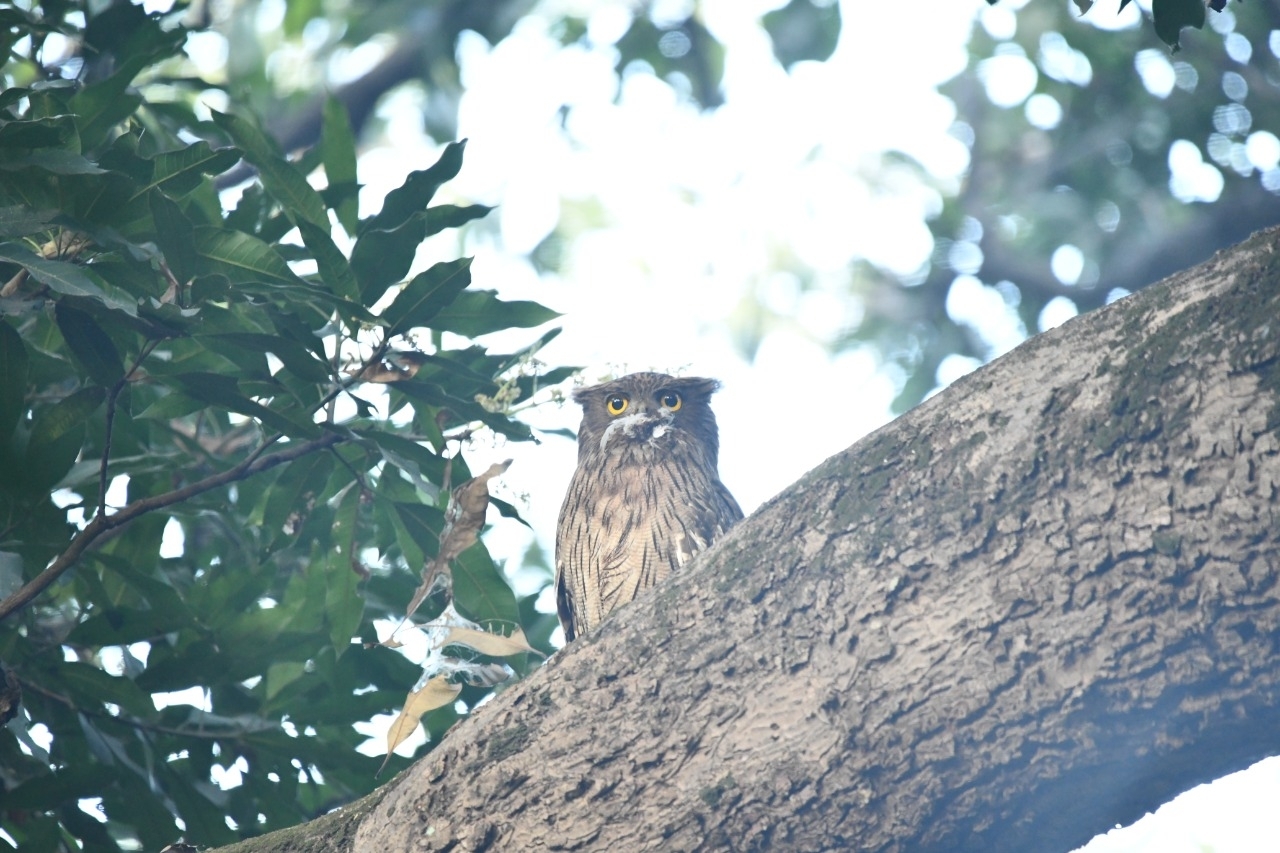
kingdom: Animalia
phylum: Chordata
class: Aves
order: Strigiformes
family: Strigidae
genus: Ketupa
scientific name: Ketupa zeylonensis
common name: Brown fish owl
